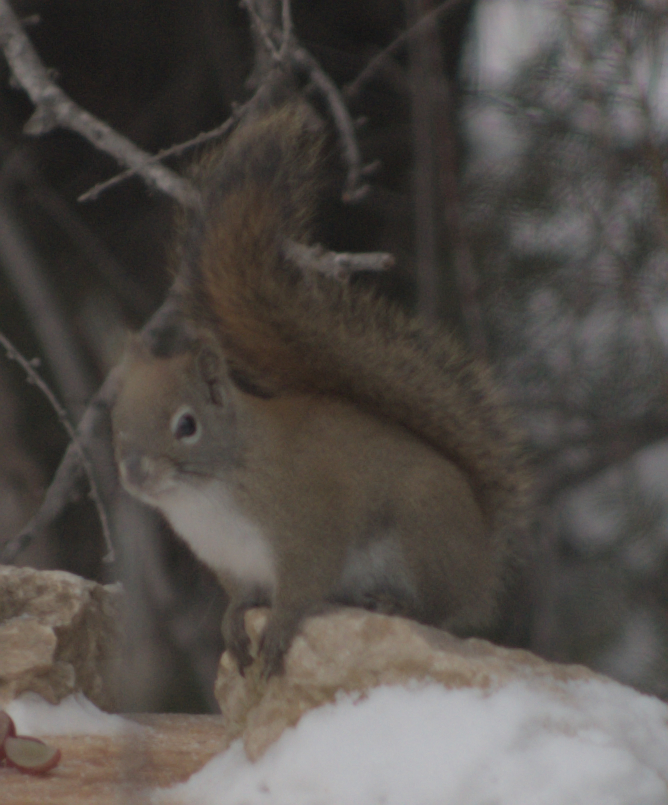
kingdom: Animalia
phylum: Chordata
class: Mammalia
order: Rodentia
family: Sciuridae
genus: Tamiasciurus
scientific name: Tamiasciurus hudsonicus
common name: Red squirrel
